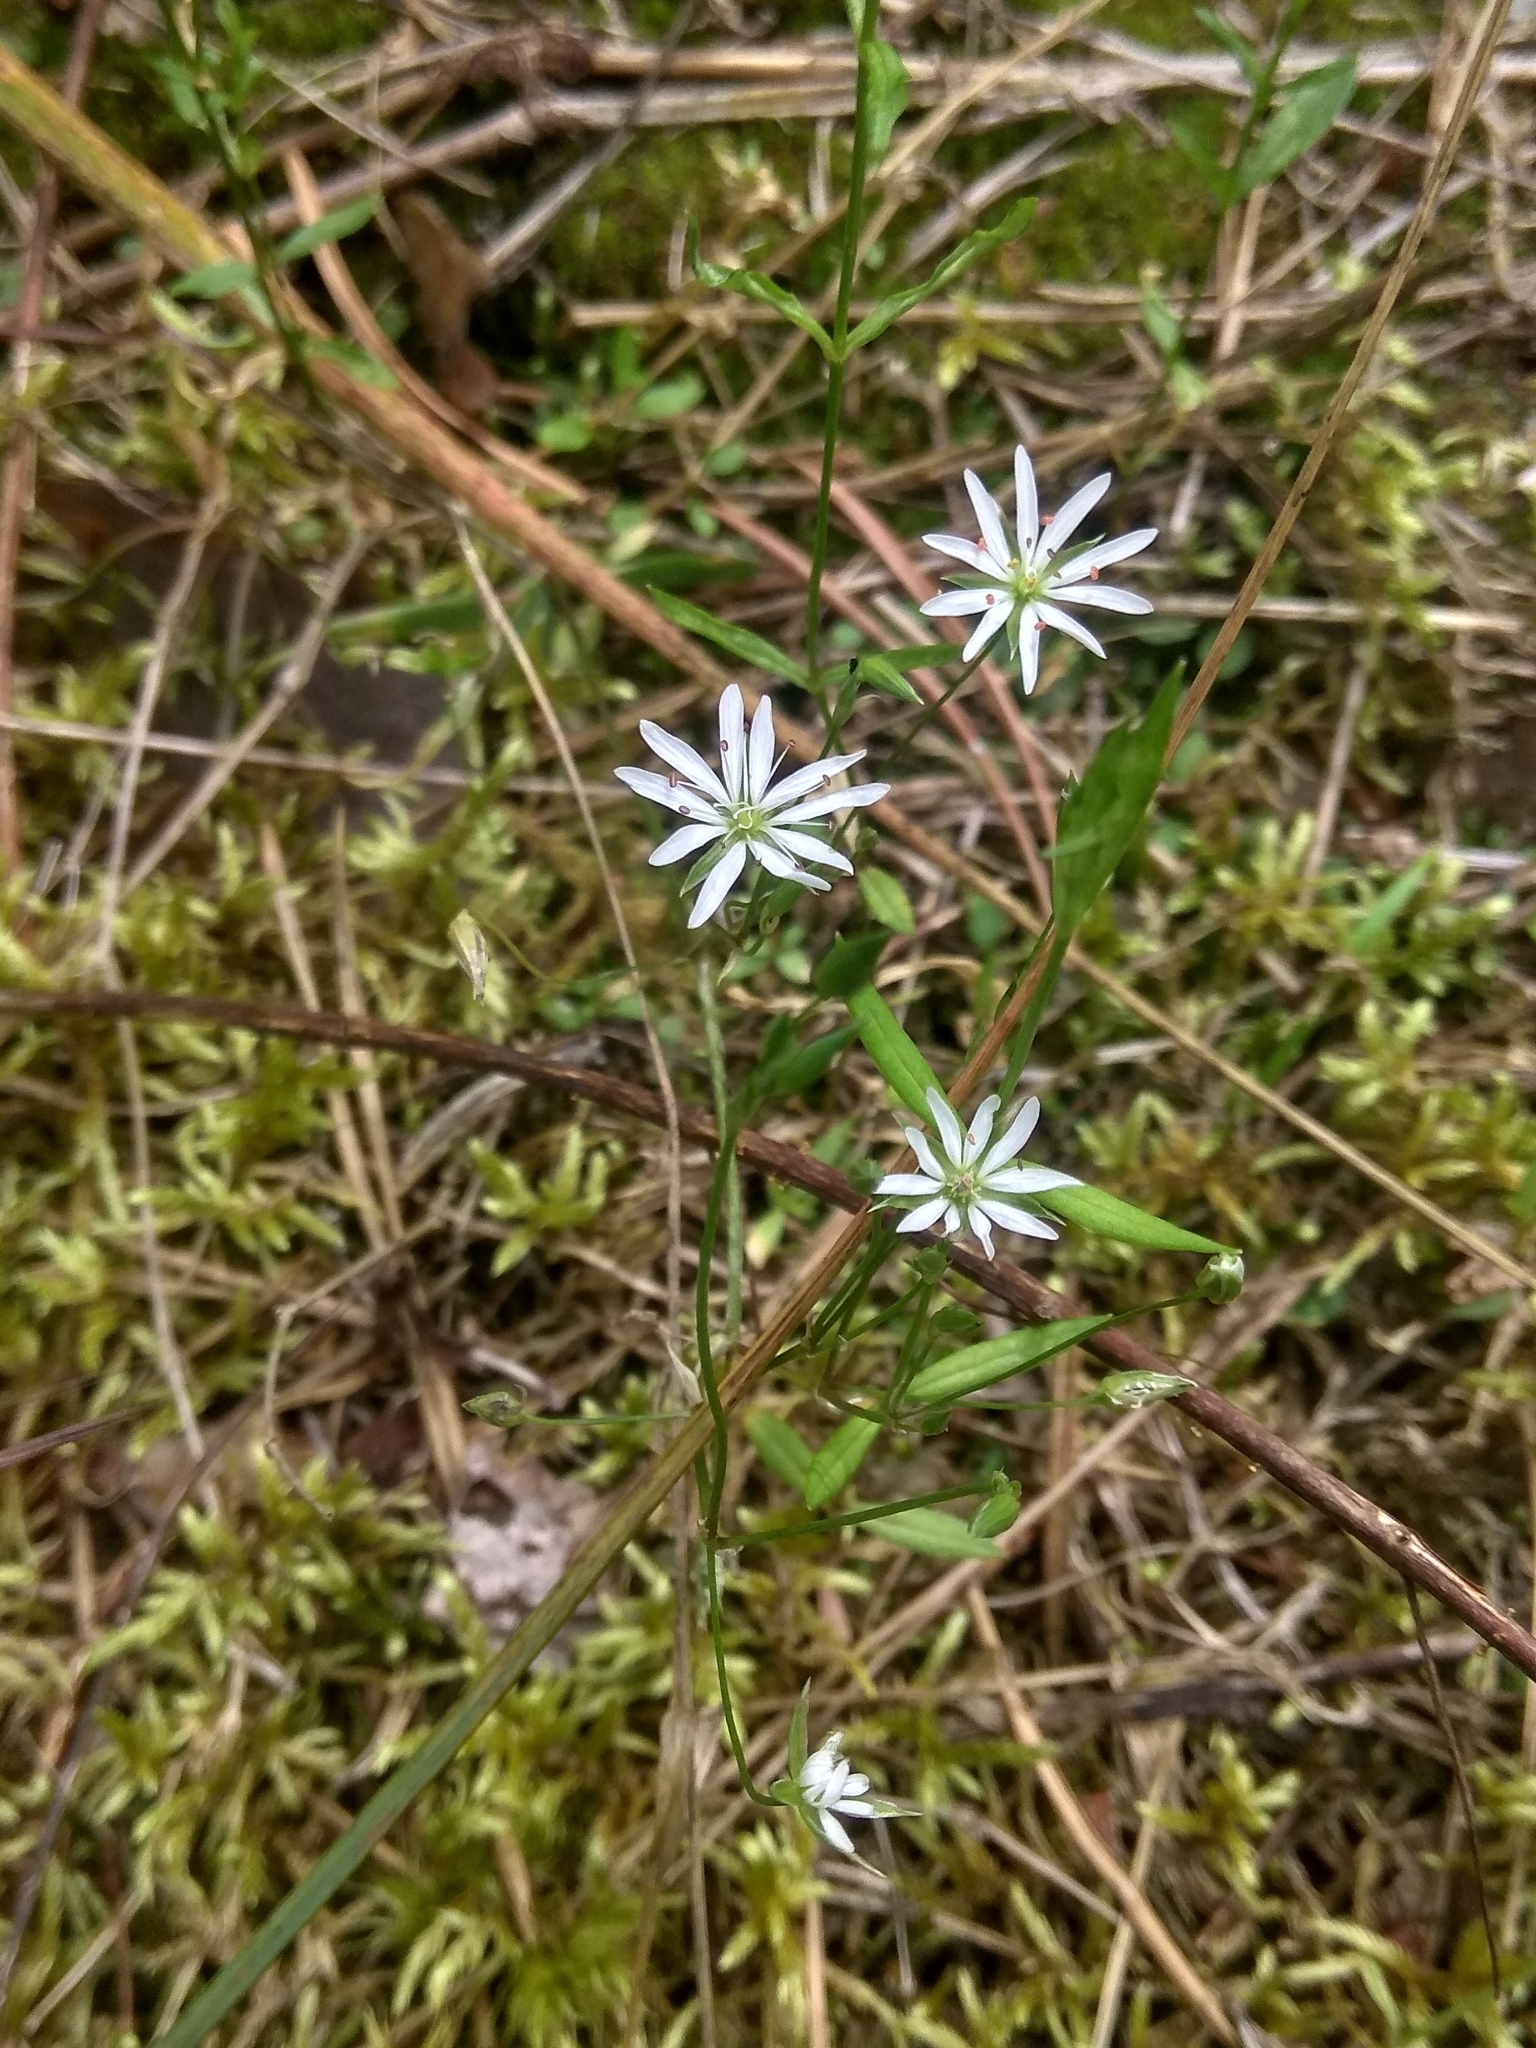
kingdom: Plantae
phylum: Tracheophyta
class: Magnoliopsida
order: Caryophyllales
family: Caryophyllaceae
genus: Stellaria
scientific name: Stellaria graminea
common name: Grass-like starwort
